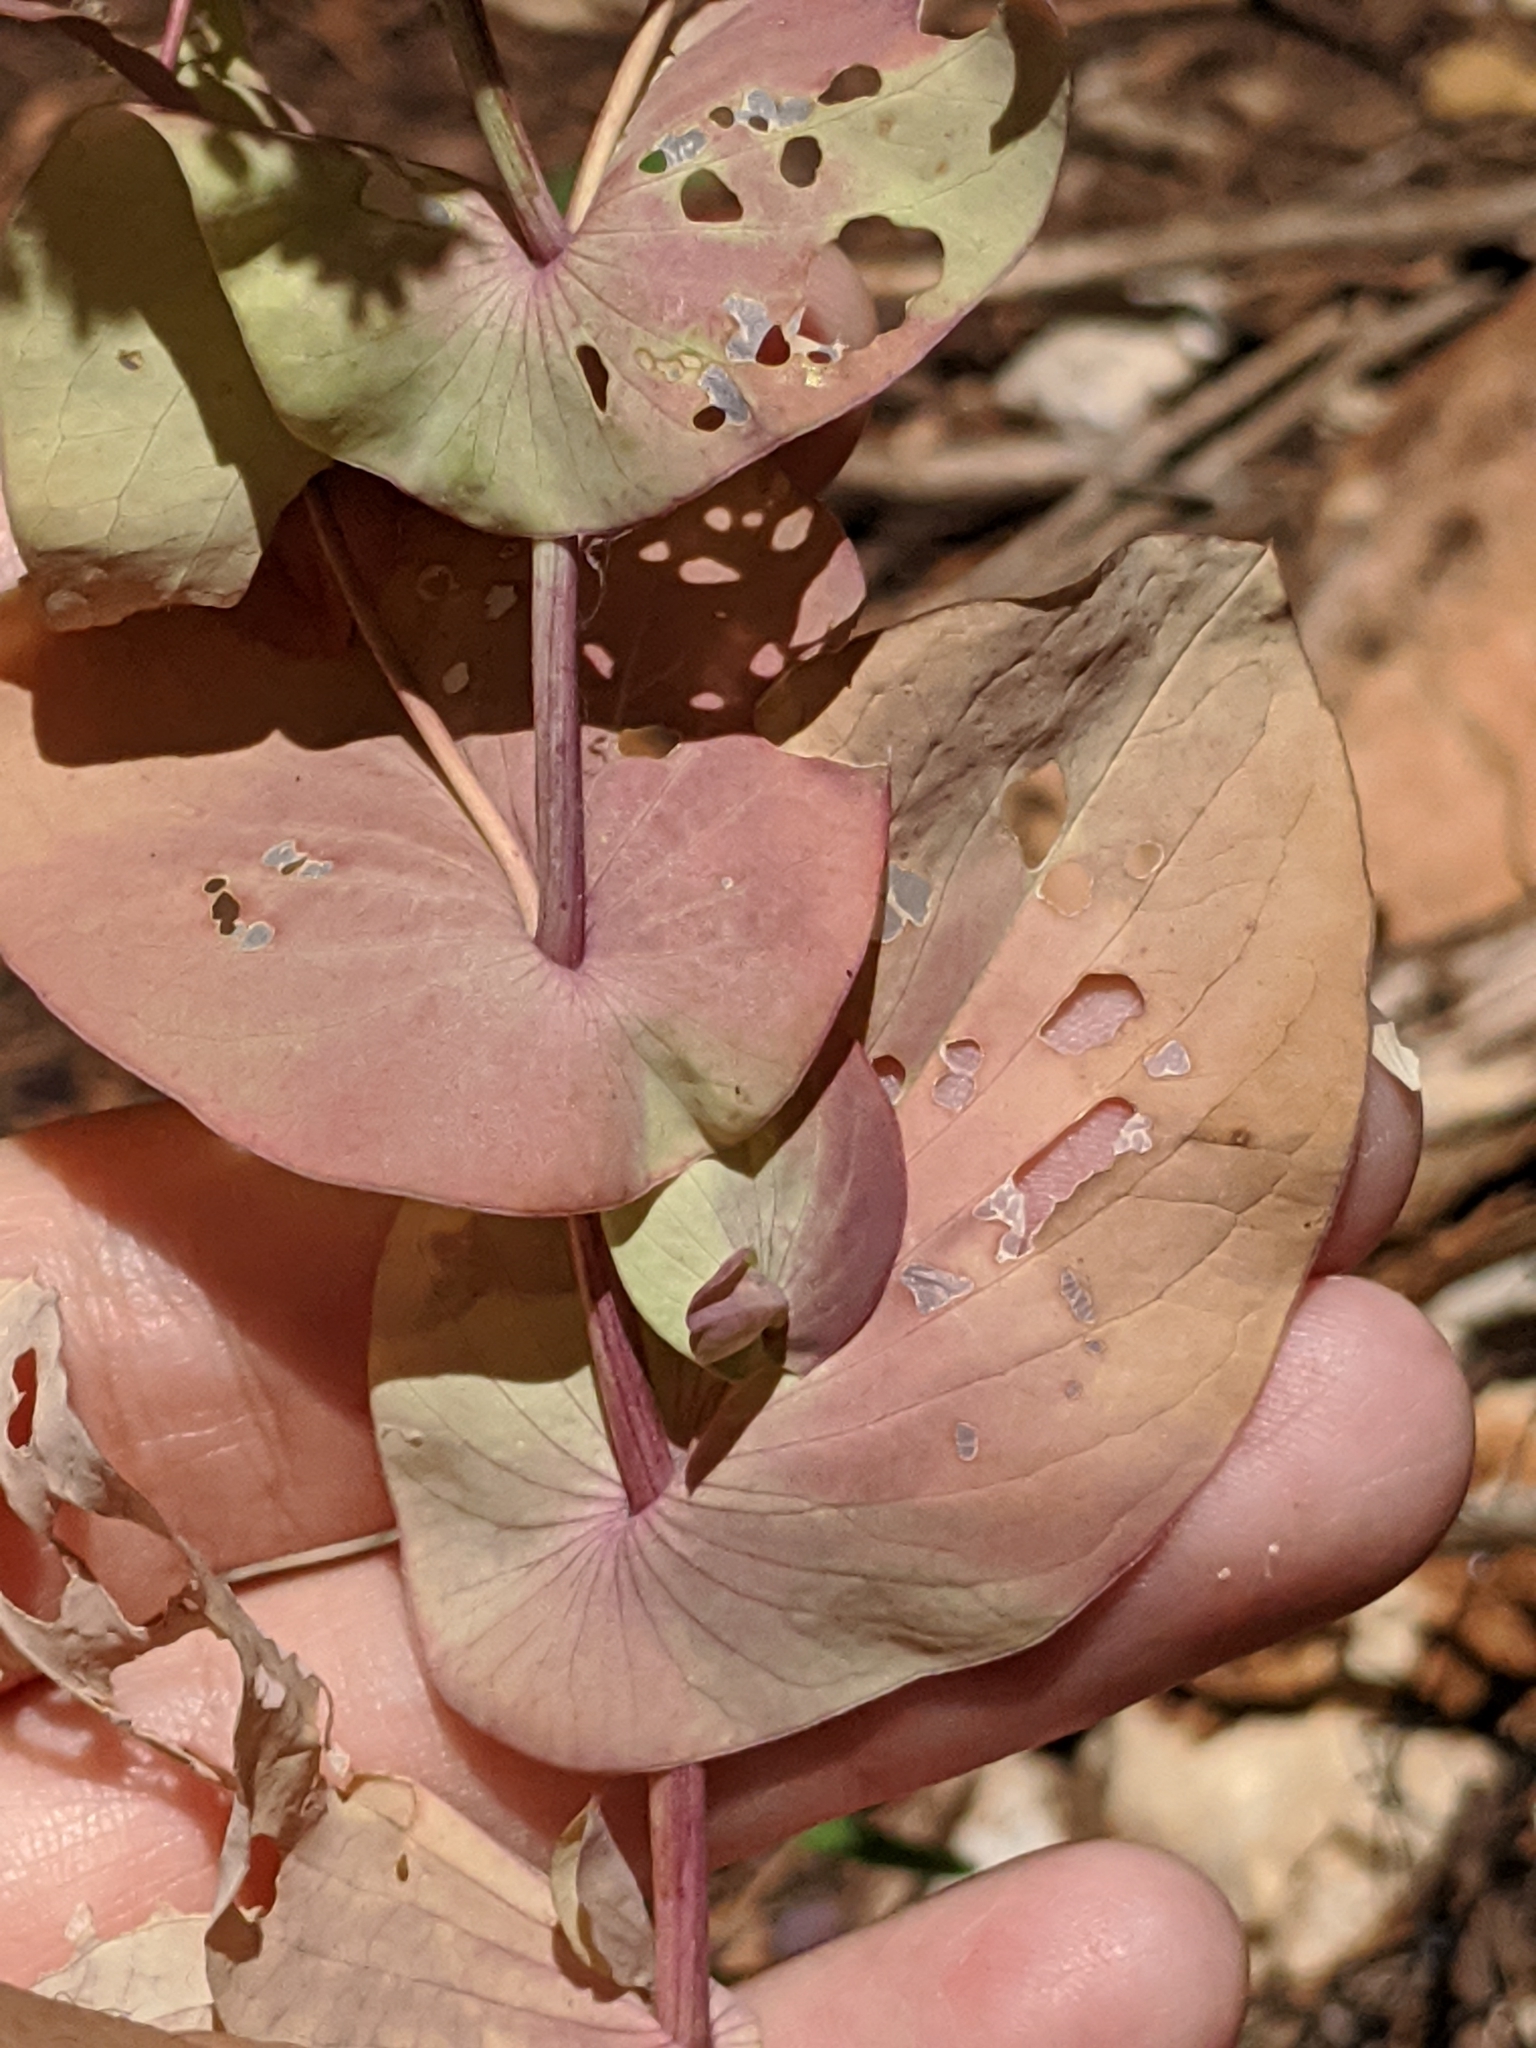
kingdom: Plantae
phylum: Tracheophyta
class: Magnoliopsida
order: Apiales
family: Apiaceae
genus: Bupleurum
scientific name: Bupleurum rotundifolium
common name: Thorow-wax
